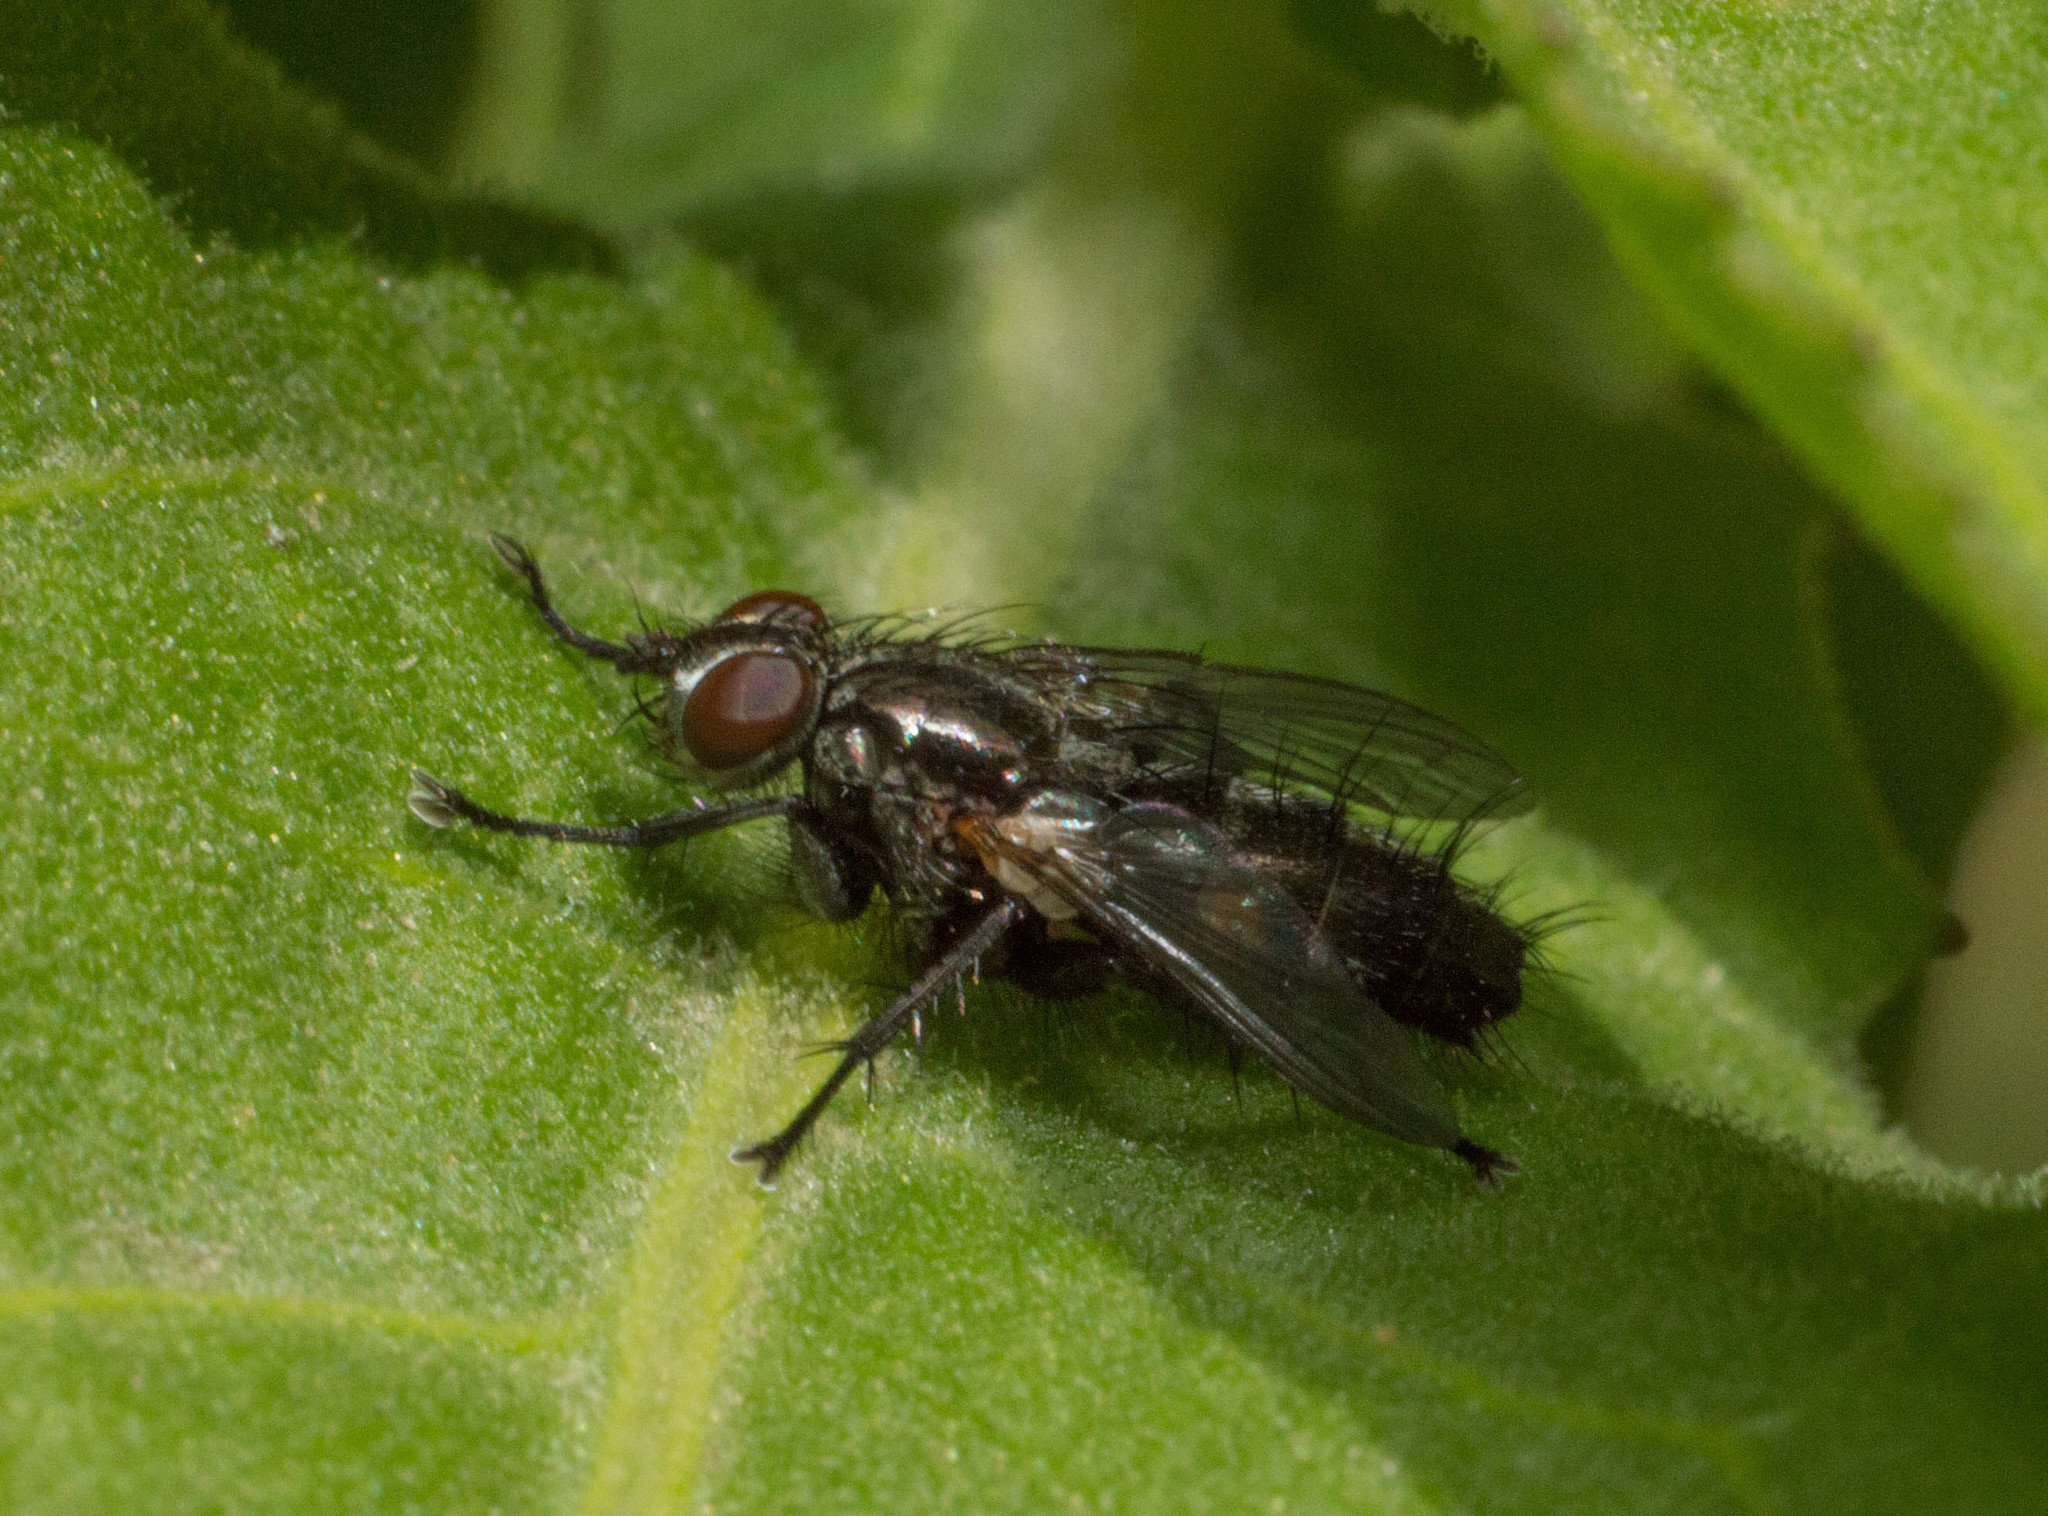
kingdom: Animalia
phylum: Arthropoda
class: Insecta
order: Diptera
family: Calliphoridae
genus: Stevenia
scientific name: Stevenia deceptoria
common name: Grizzled woodlouse-fly
